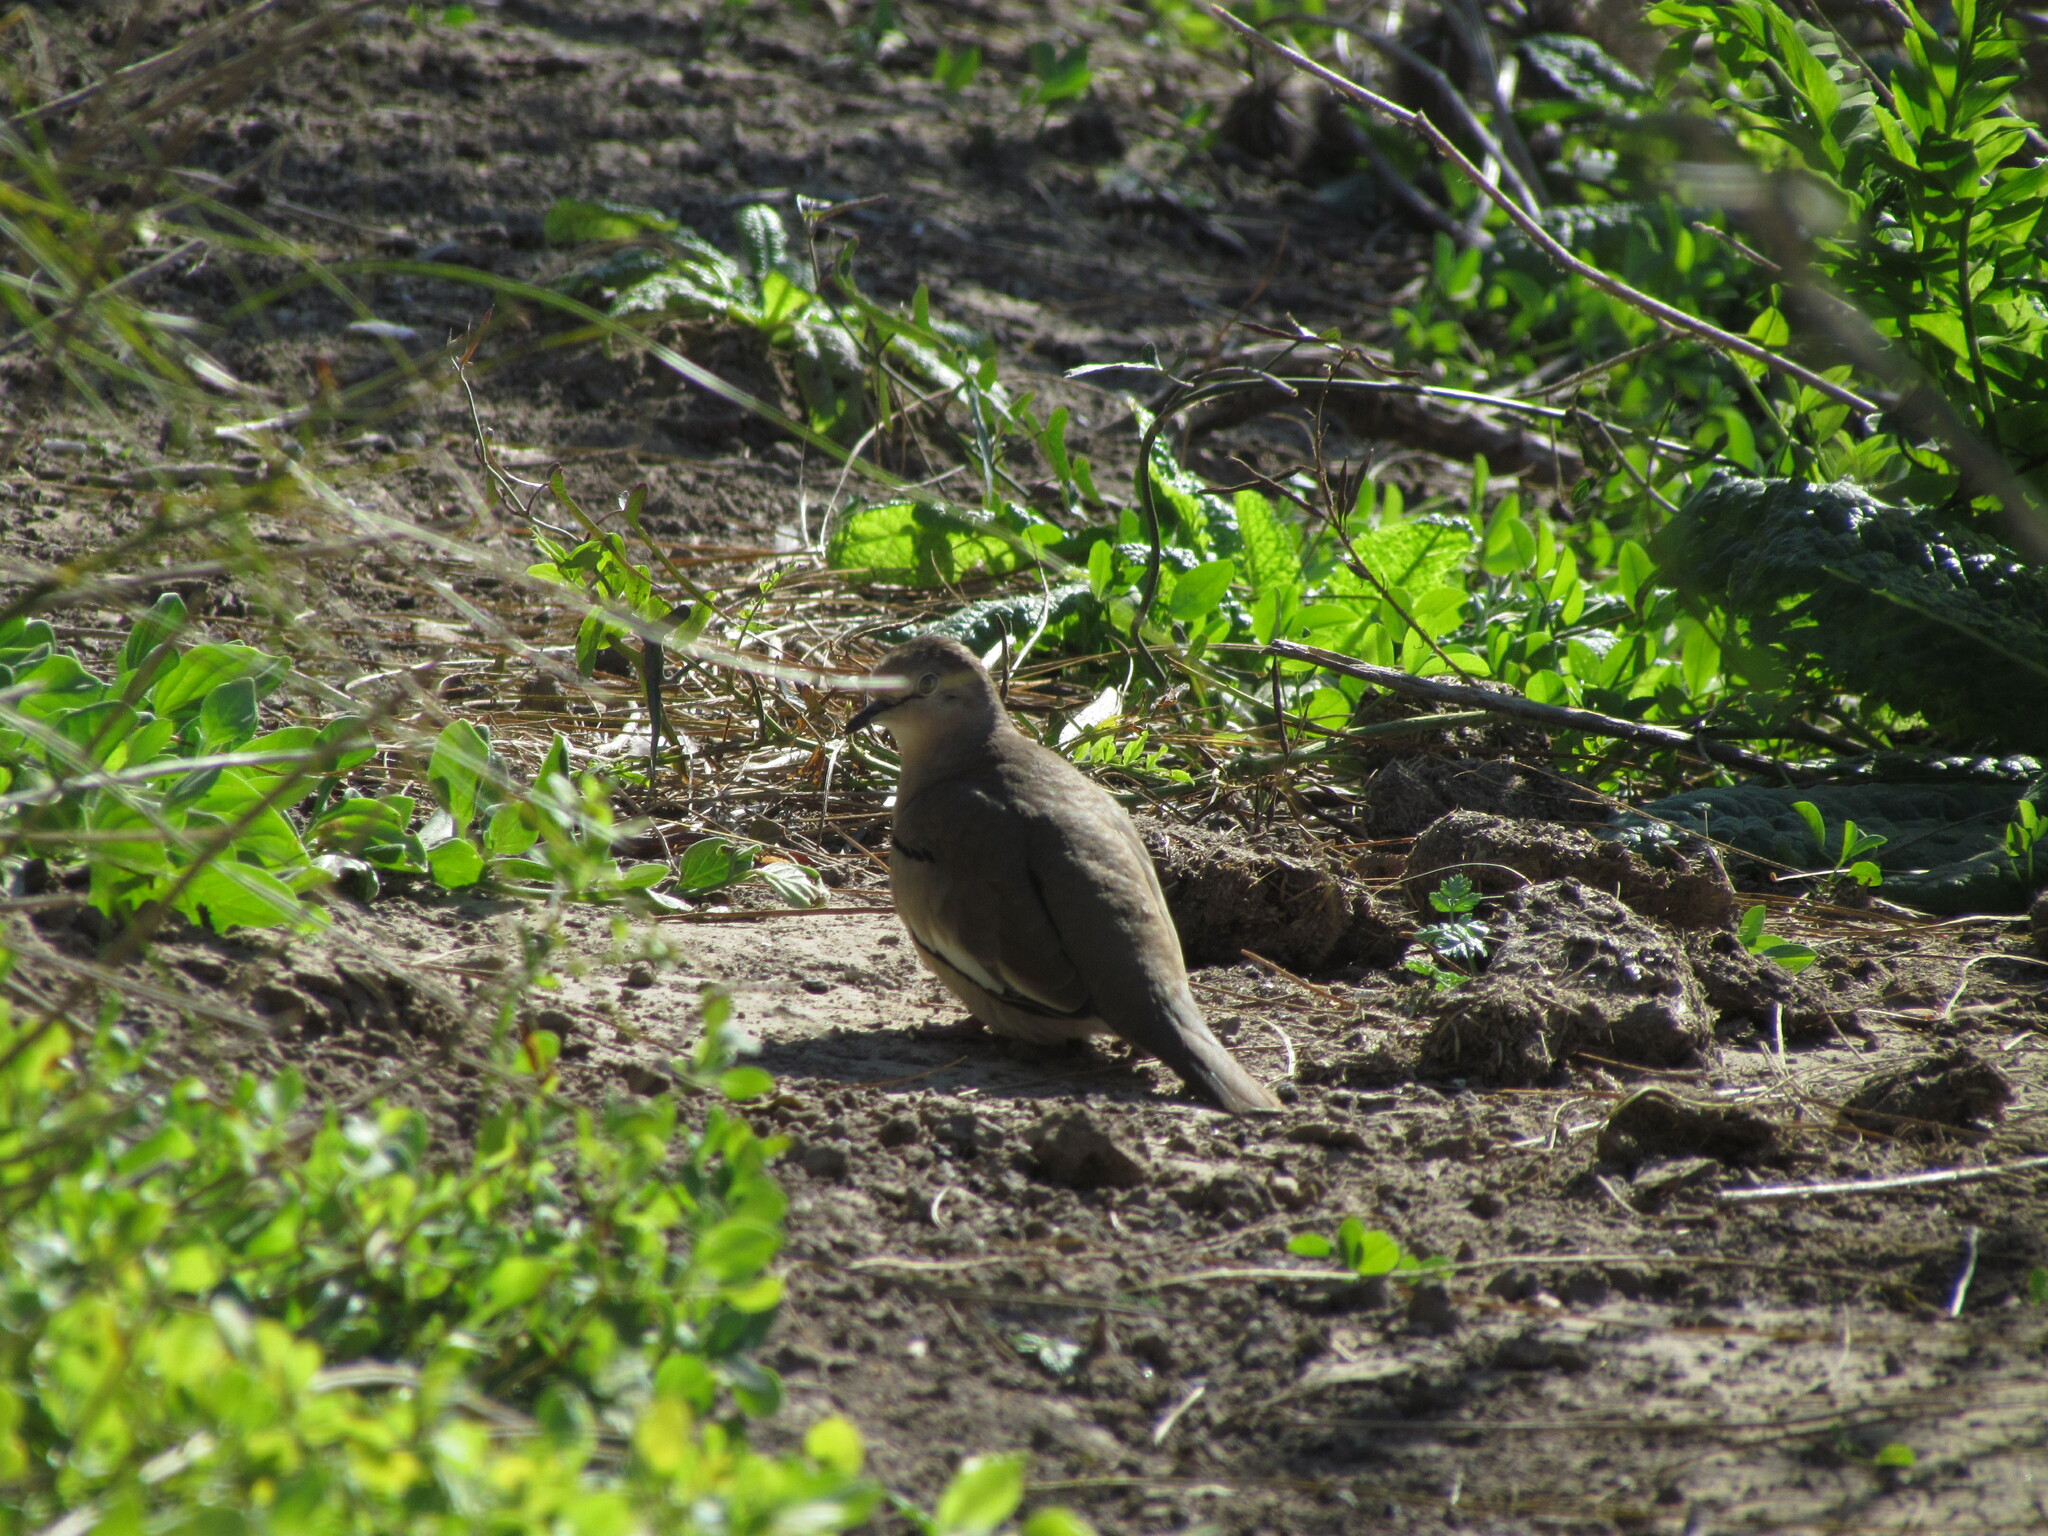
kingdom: Animalia
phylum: Chordata
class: Aves
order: Columbiformes
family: Columbidae
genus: Columbina
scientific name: Columbina picui
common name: Picui ground dove
